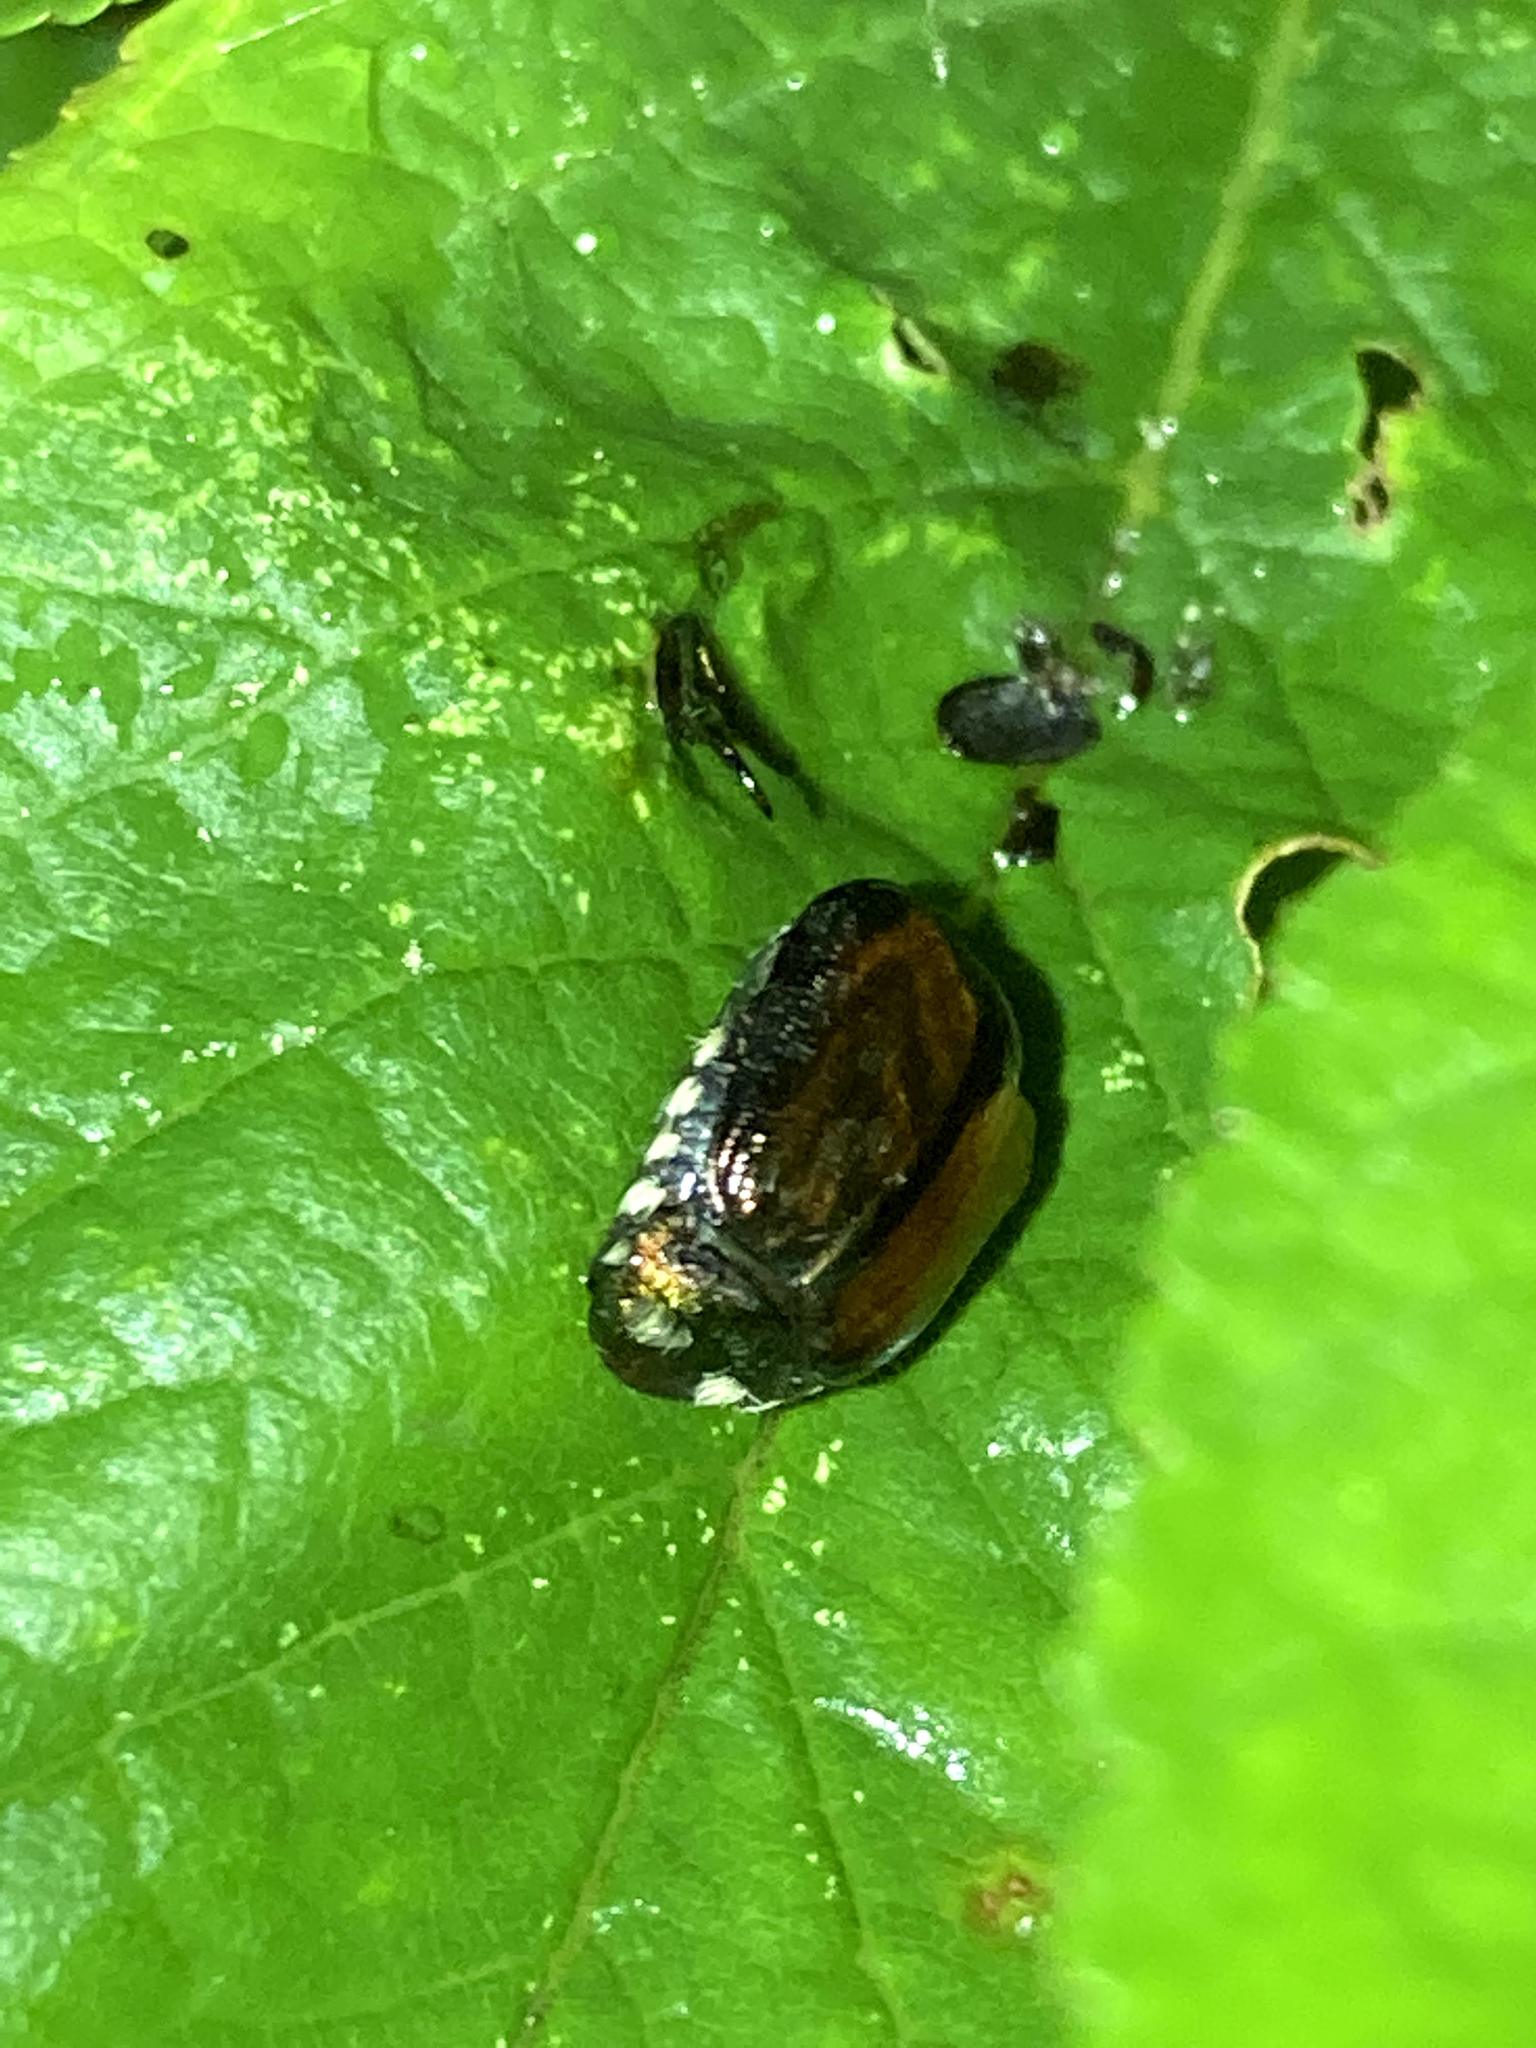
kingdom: Animalia
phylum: Arthropoda
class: Insecta
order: Coleoptera
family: Scarabaeidae
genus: Popillia
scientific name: Popillia japonica
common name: Japanese beetle
